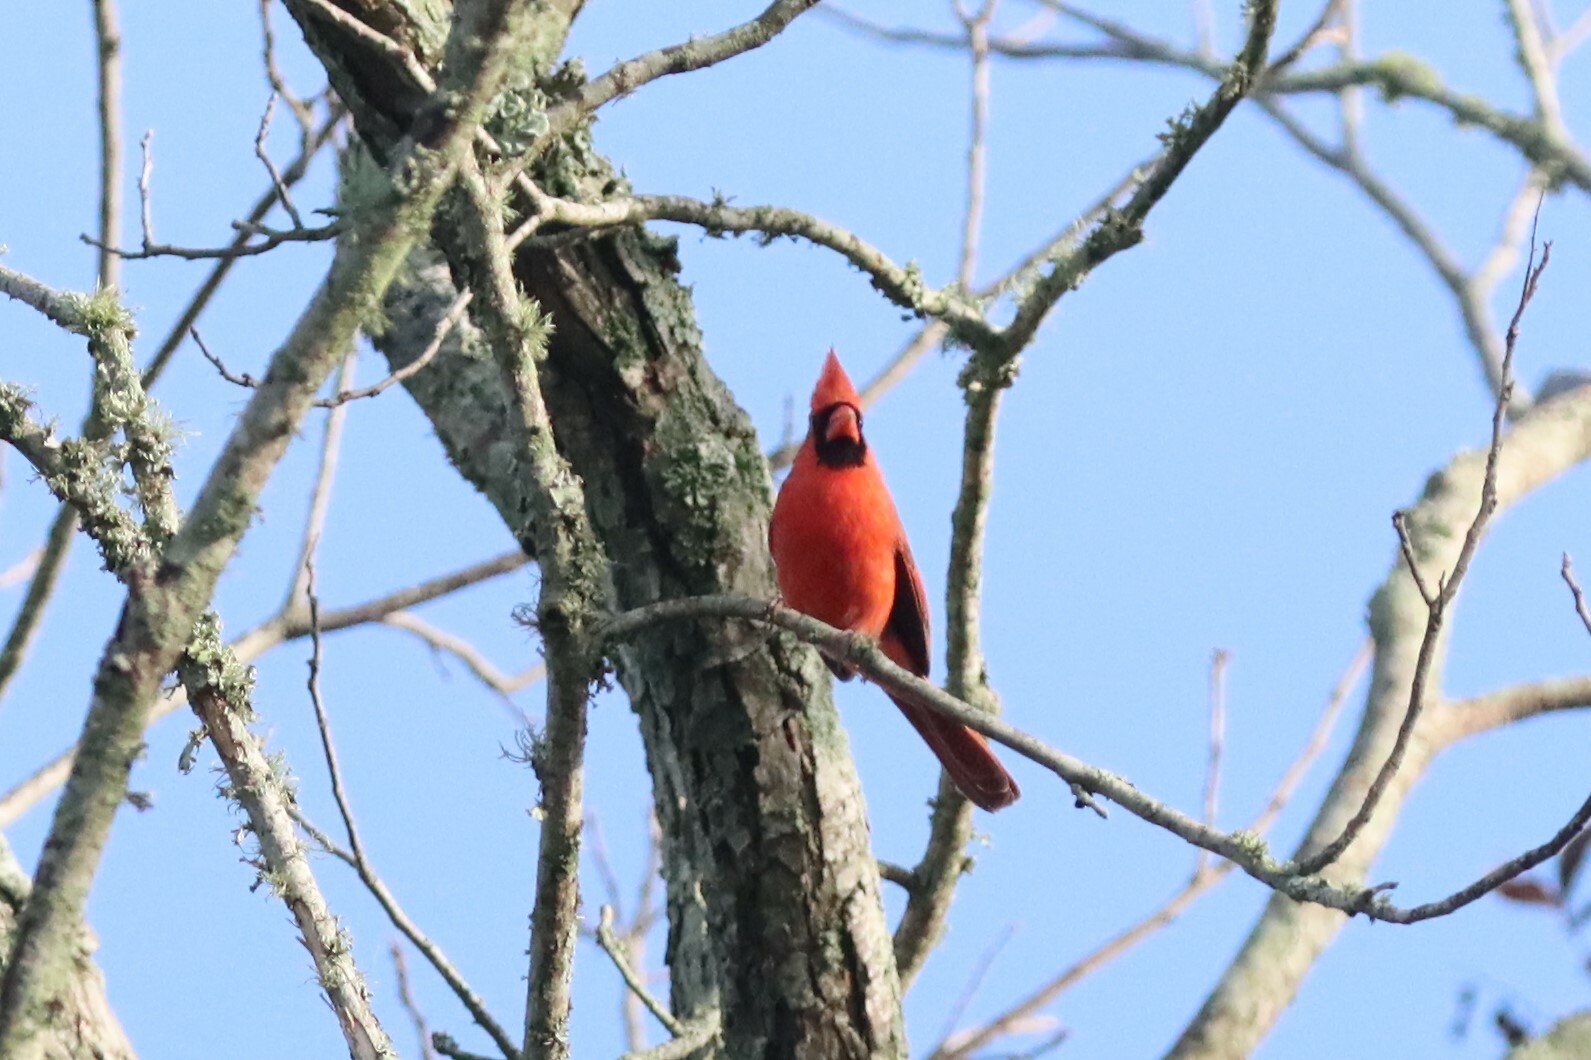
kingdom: Animalia
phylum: Chordata
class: Aves
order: Passeriformes
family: Cardinalidae
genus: Cardinalis
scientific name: Cardinalis cardinalis
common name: Northern cardinal
